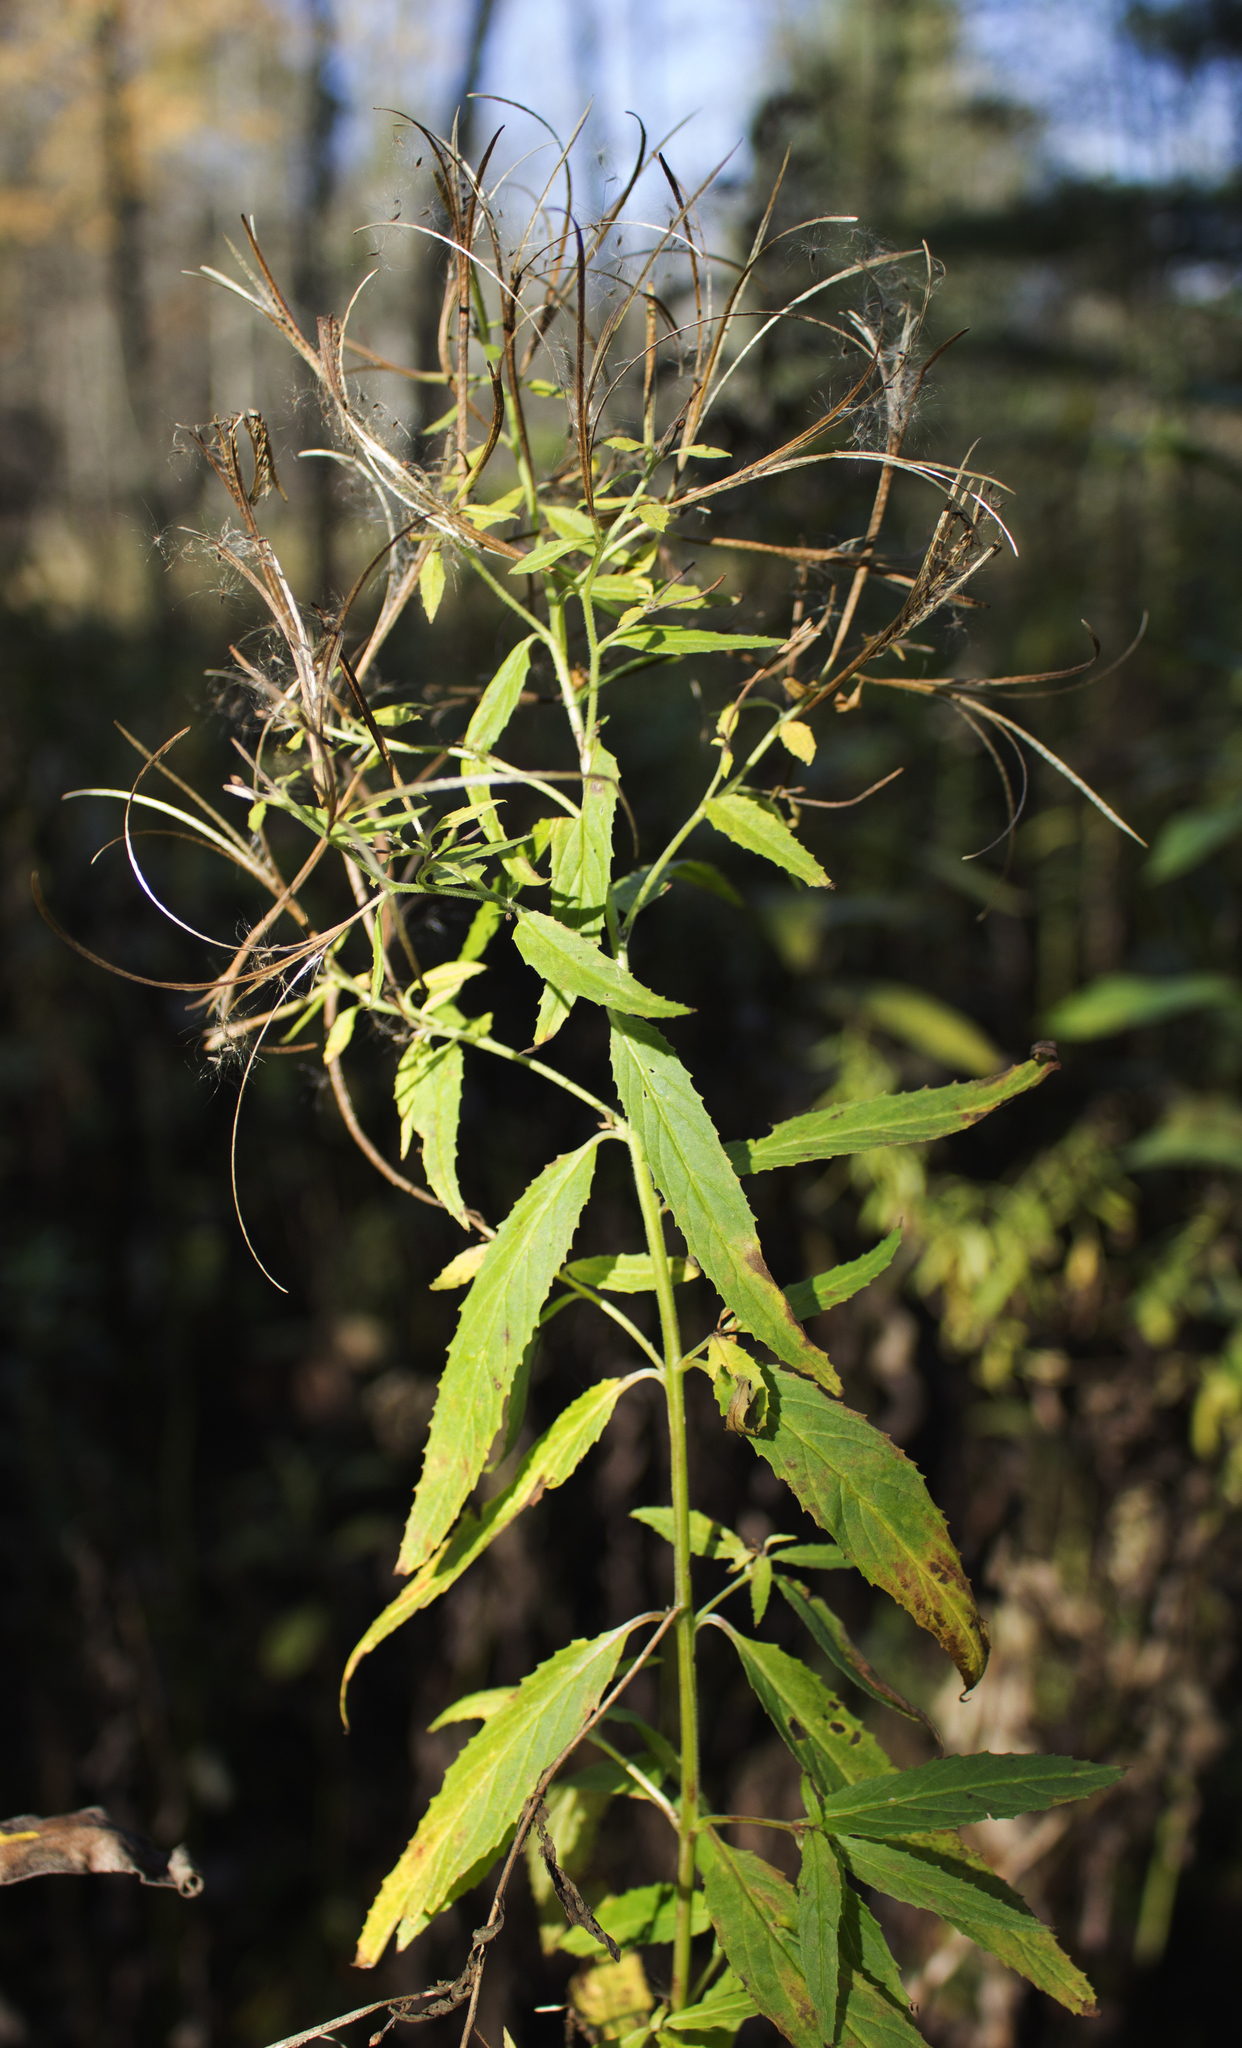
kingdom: Plantae
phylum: Tracheophyta
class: Magnoliopsida
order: Myrtales
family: Onagraceae
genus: Epilobium
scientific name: Epilobium coloratum
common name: Bronze willowherb
